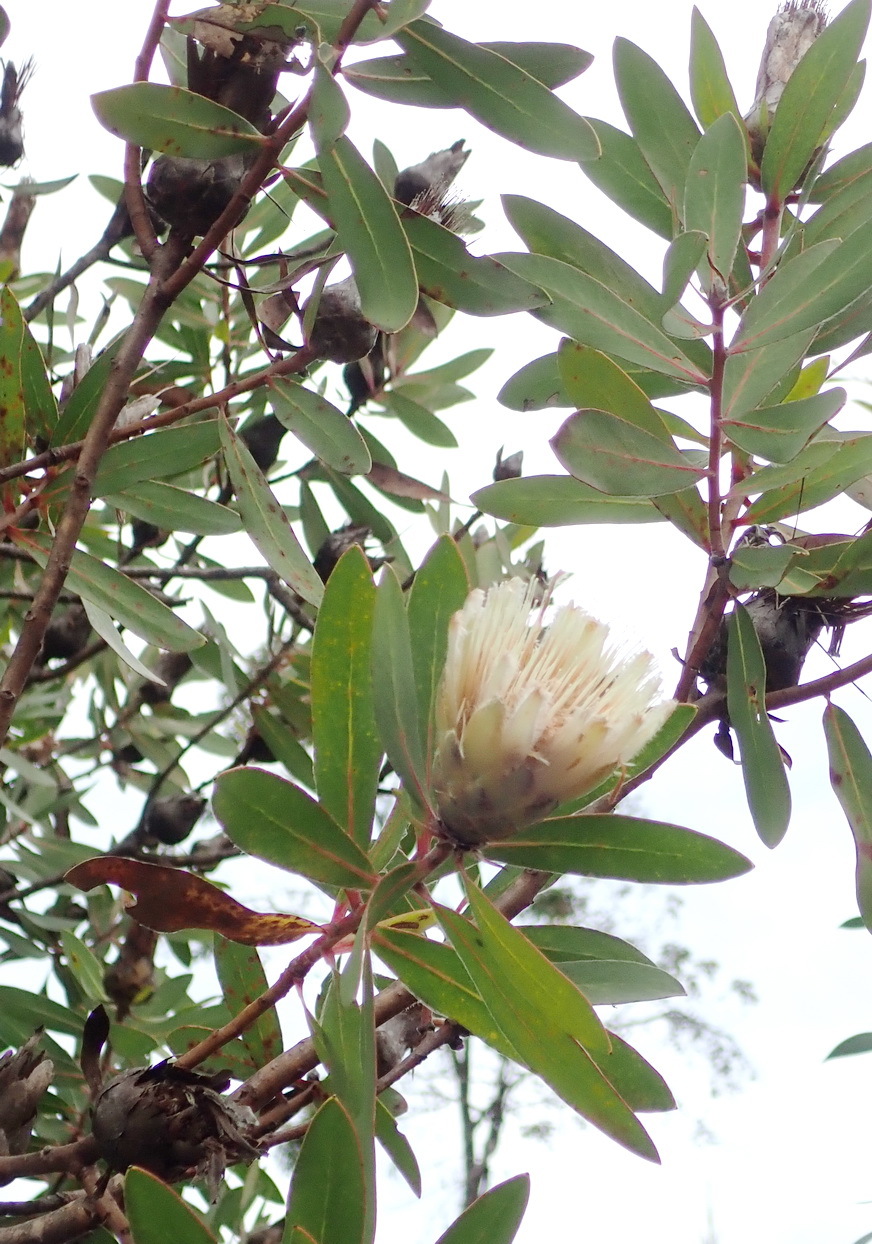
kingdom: Plantae
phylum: Tracheophyta
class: Magnoliopsida
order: Proteales
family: Proteaceae
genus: Protea
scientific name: Protea mundii
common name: Forest sugarbush
